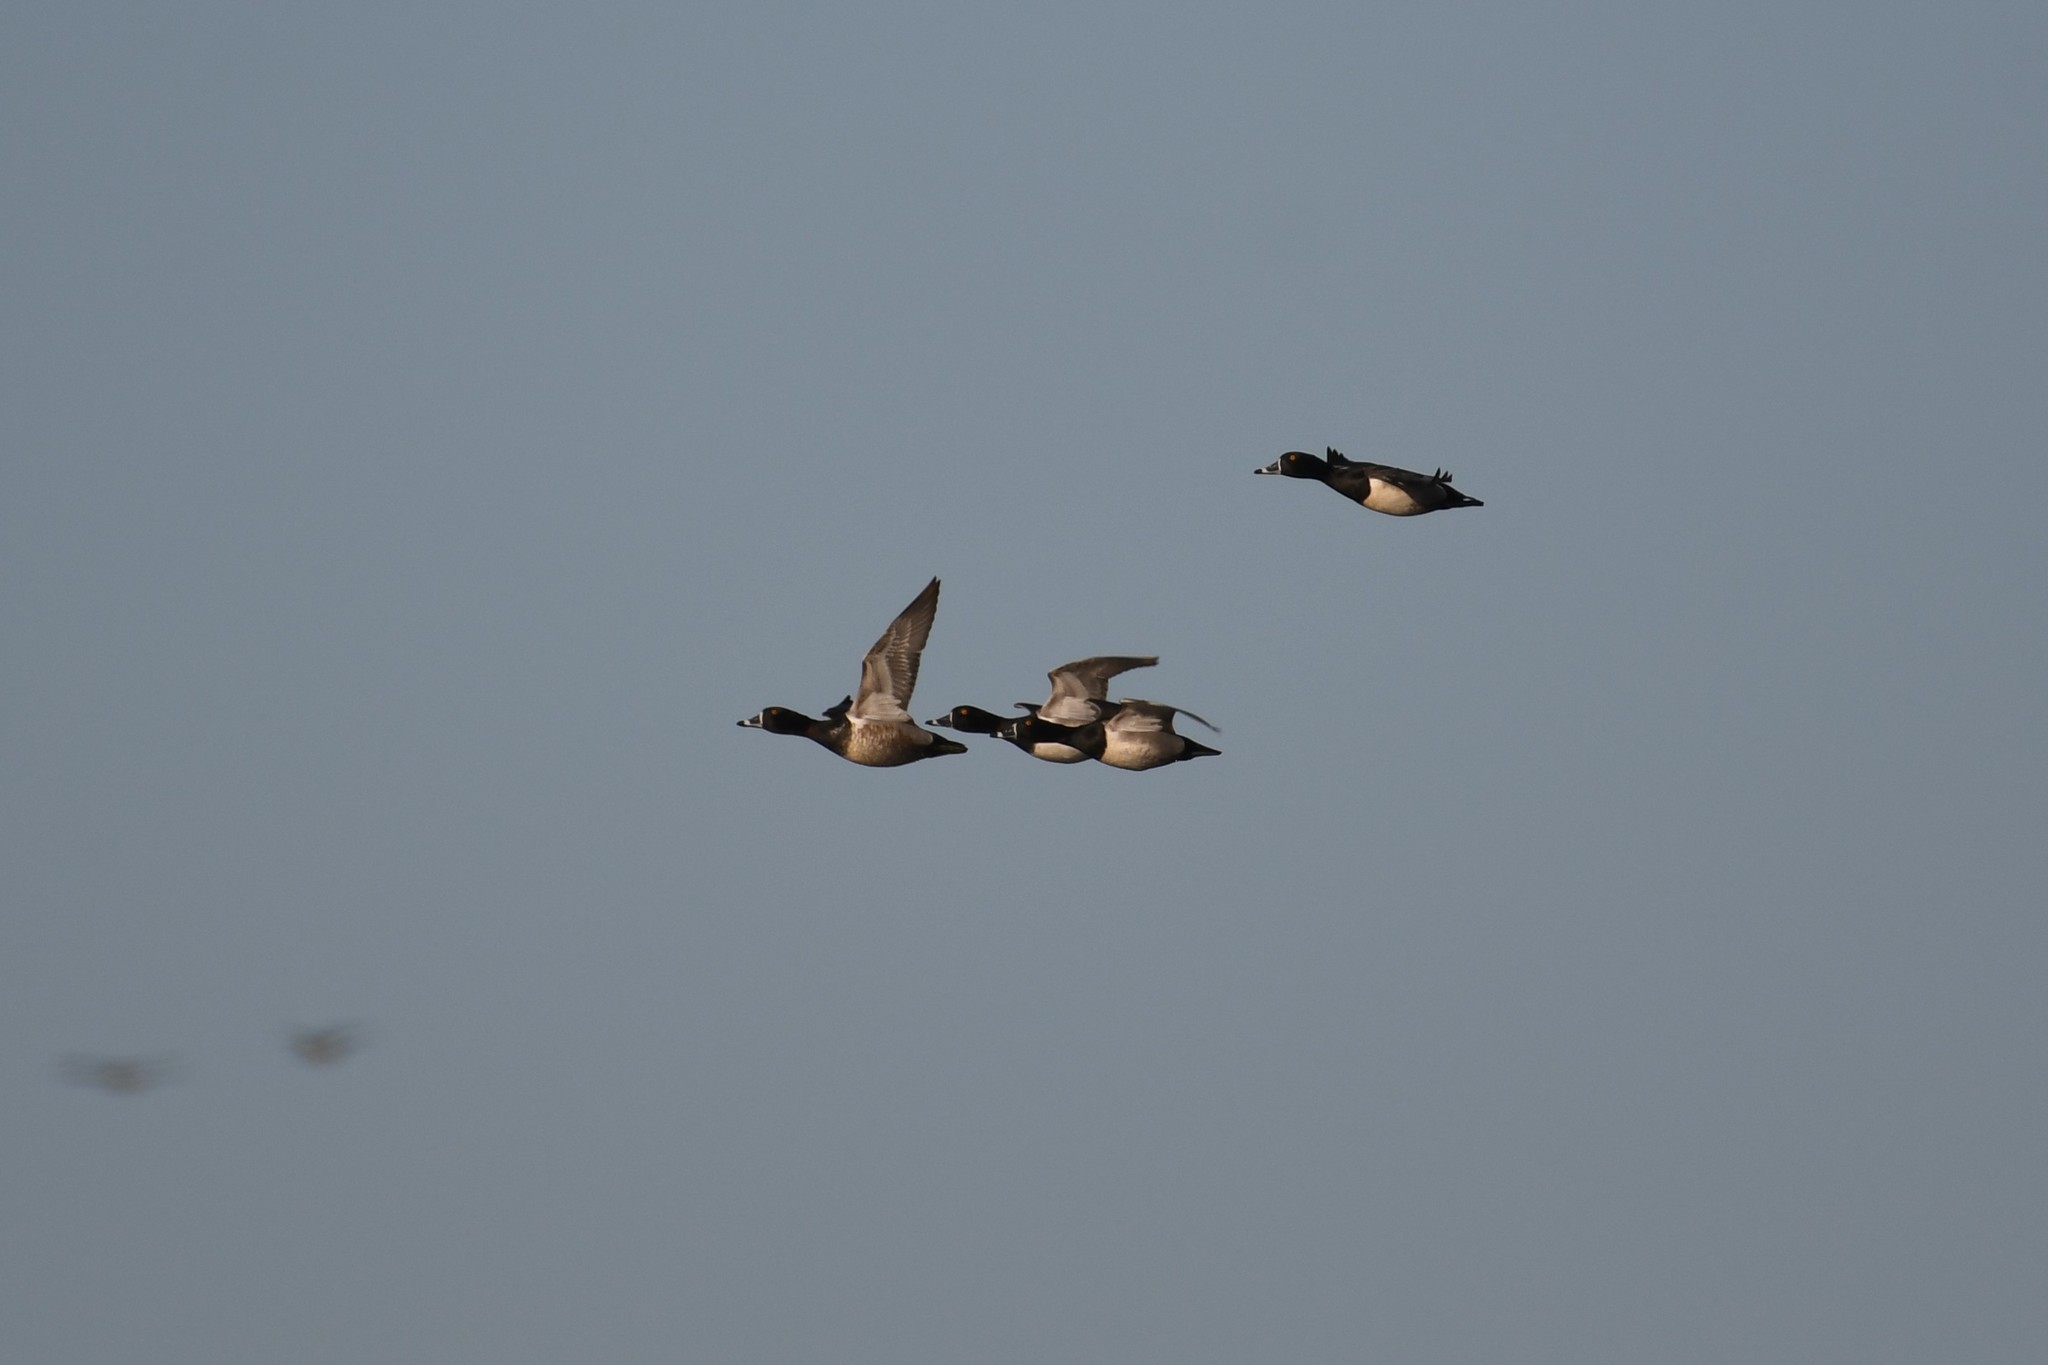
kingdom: Animalia
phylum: Chordata
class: Aves
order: Anseriformes
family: Anatidae
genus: Aythya
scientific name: Aythya collaris
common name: Ring-necked duck
